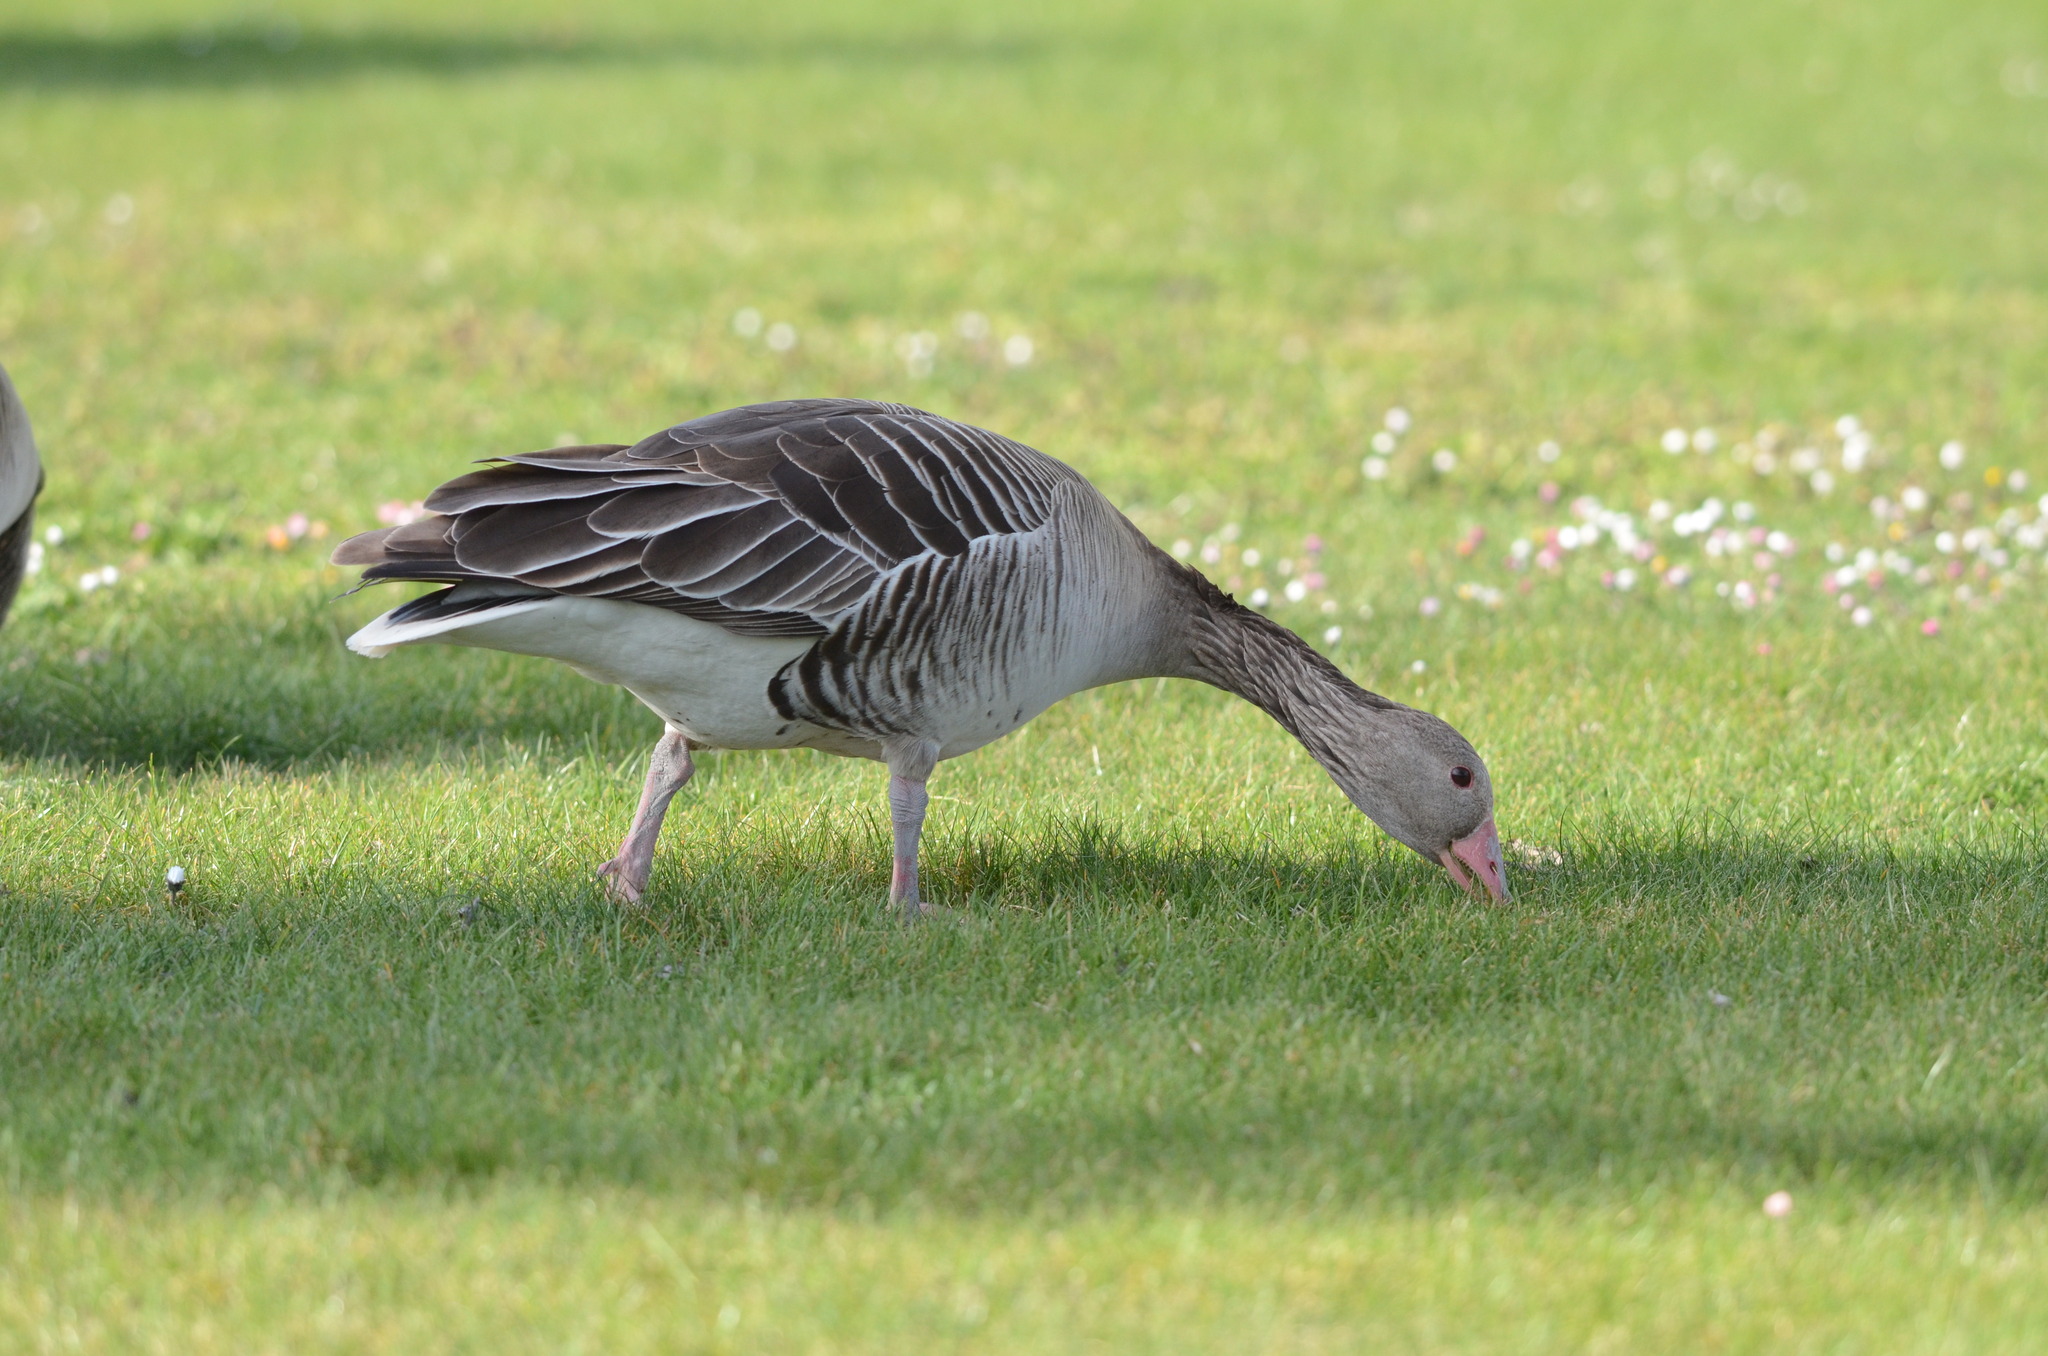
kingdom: Animalia
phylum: Chordata
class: Aves
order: Anseriformes
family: Anatidae
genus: Anser
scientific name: Anser anser
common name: Greylag goose
